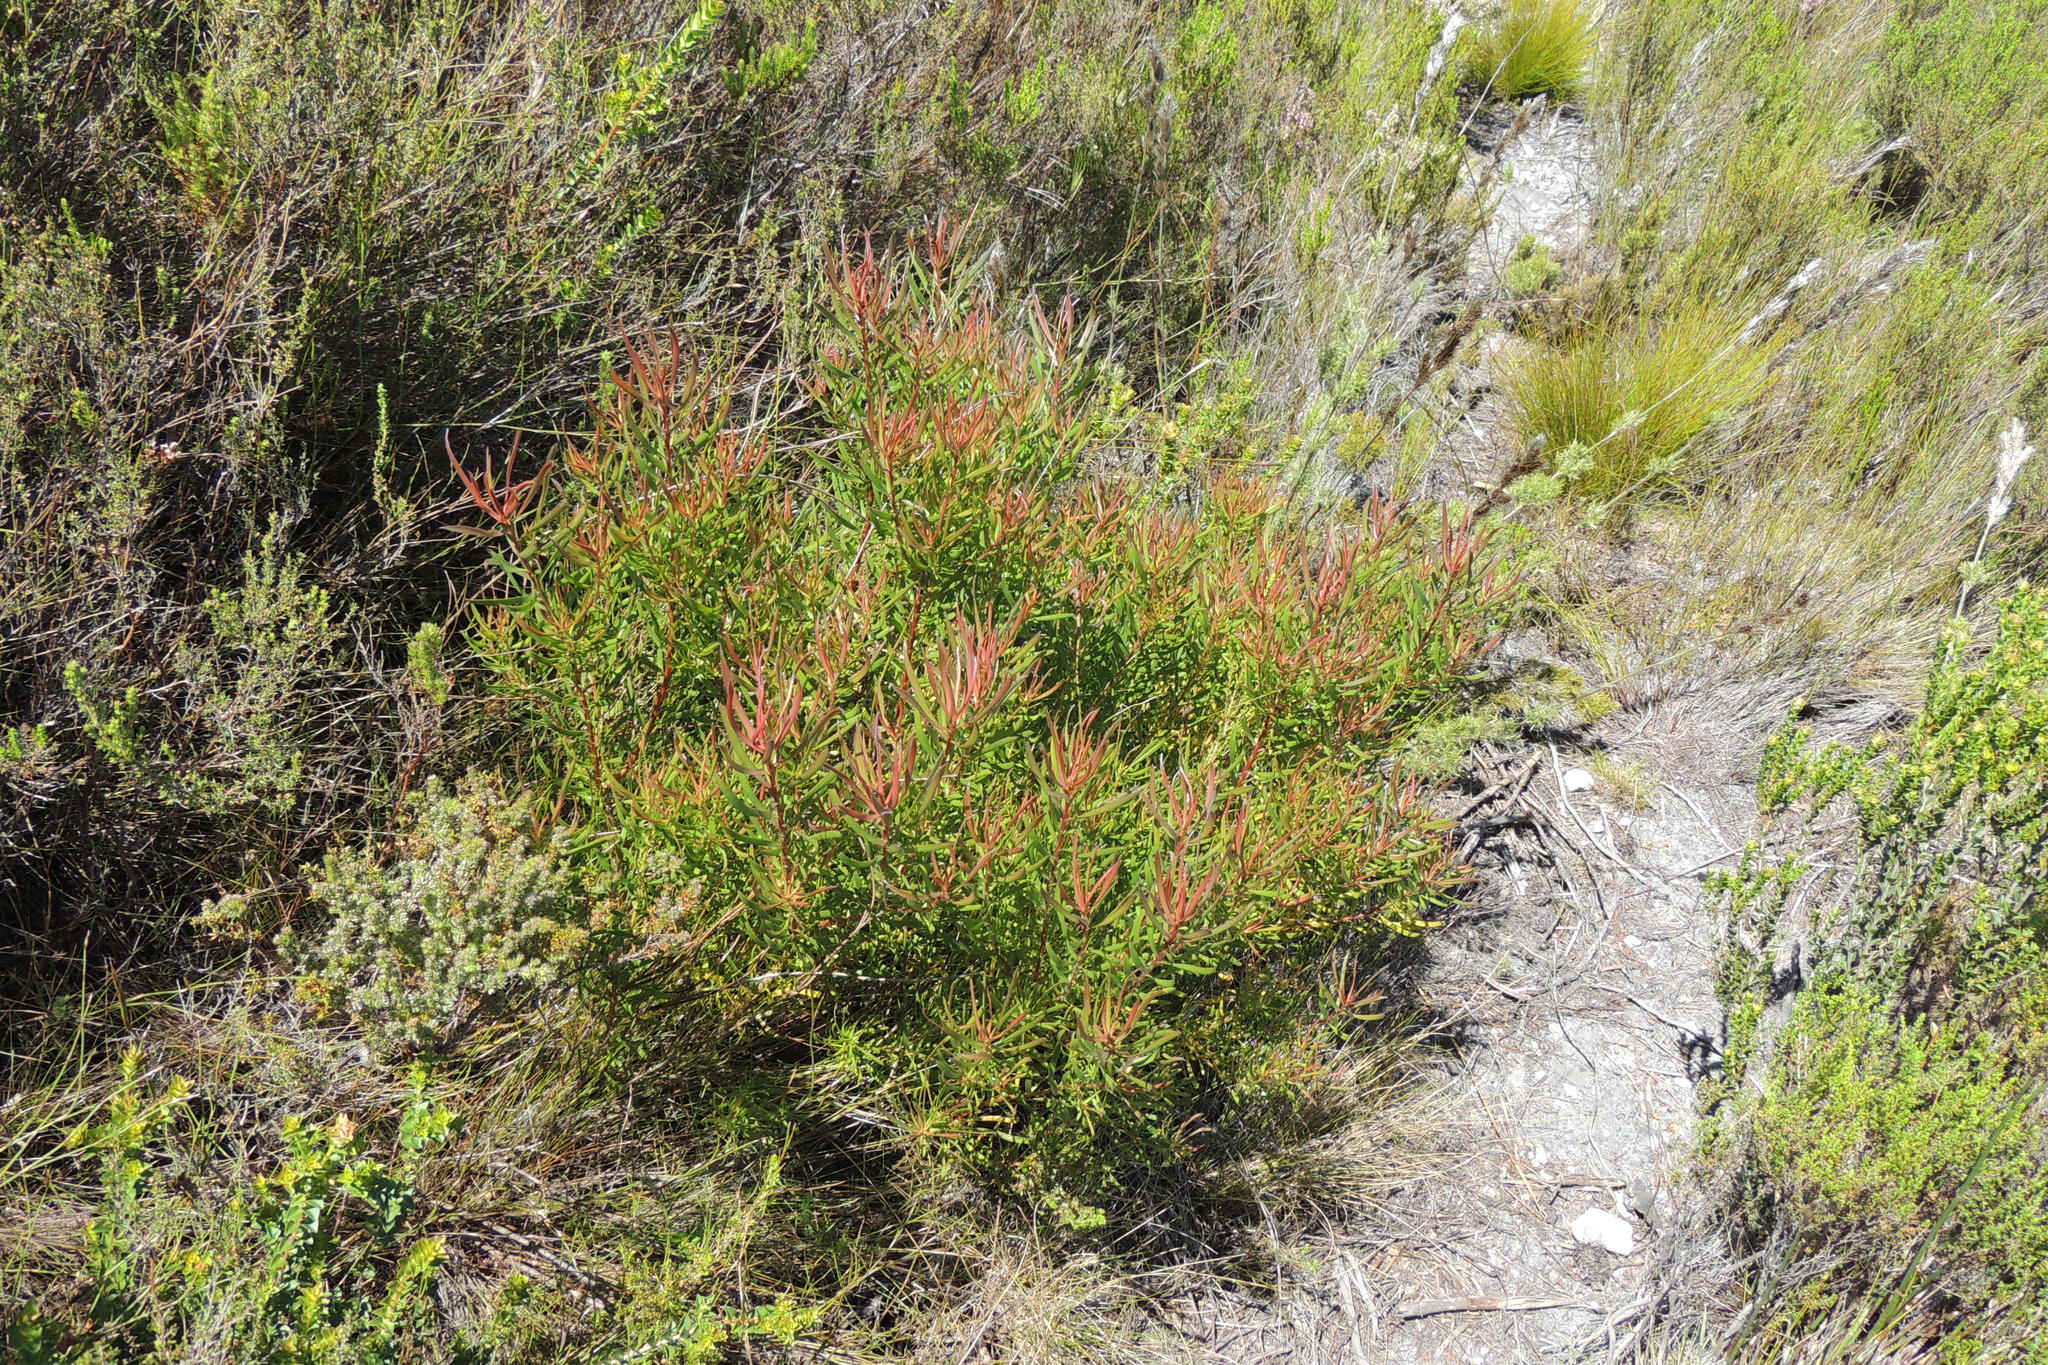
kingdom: Plantae
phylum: Tracheophyta
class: Magnoliopsida
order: Proteales
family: Proteaceae
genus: Leucadendron
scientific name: Leucadendron spissifolium
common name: Spear-leaf conebush
